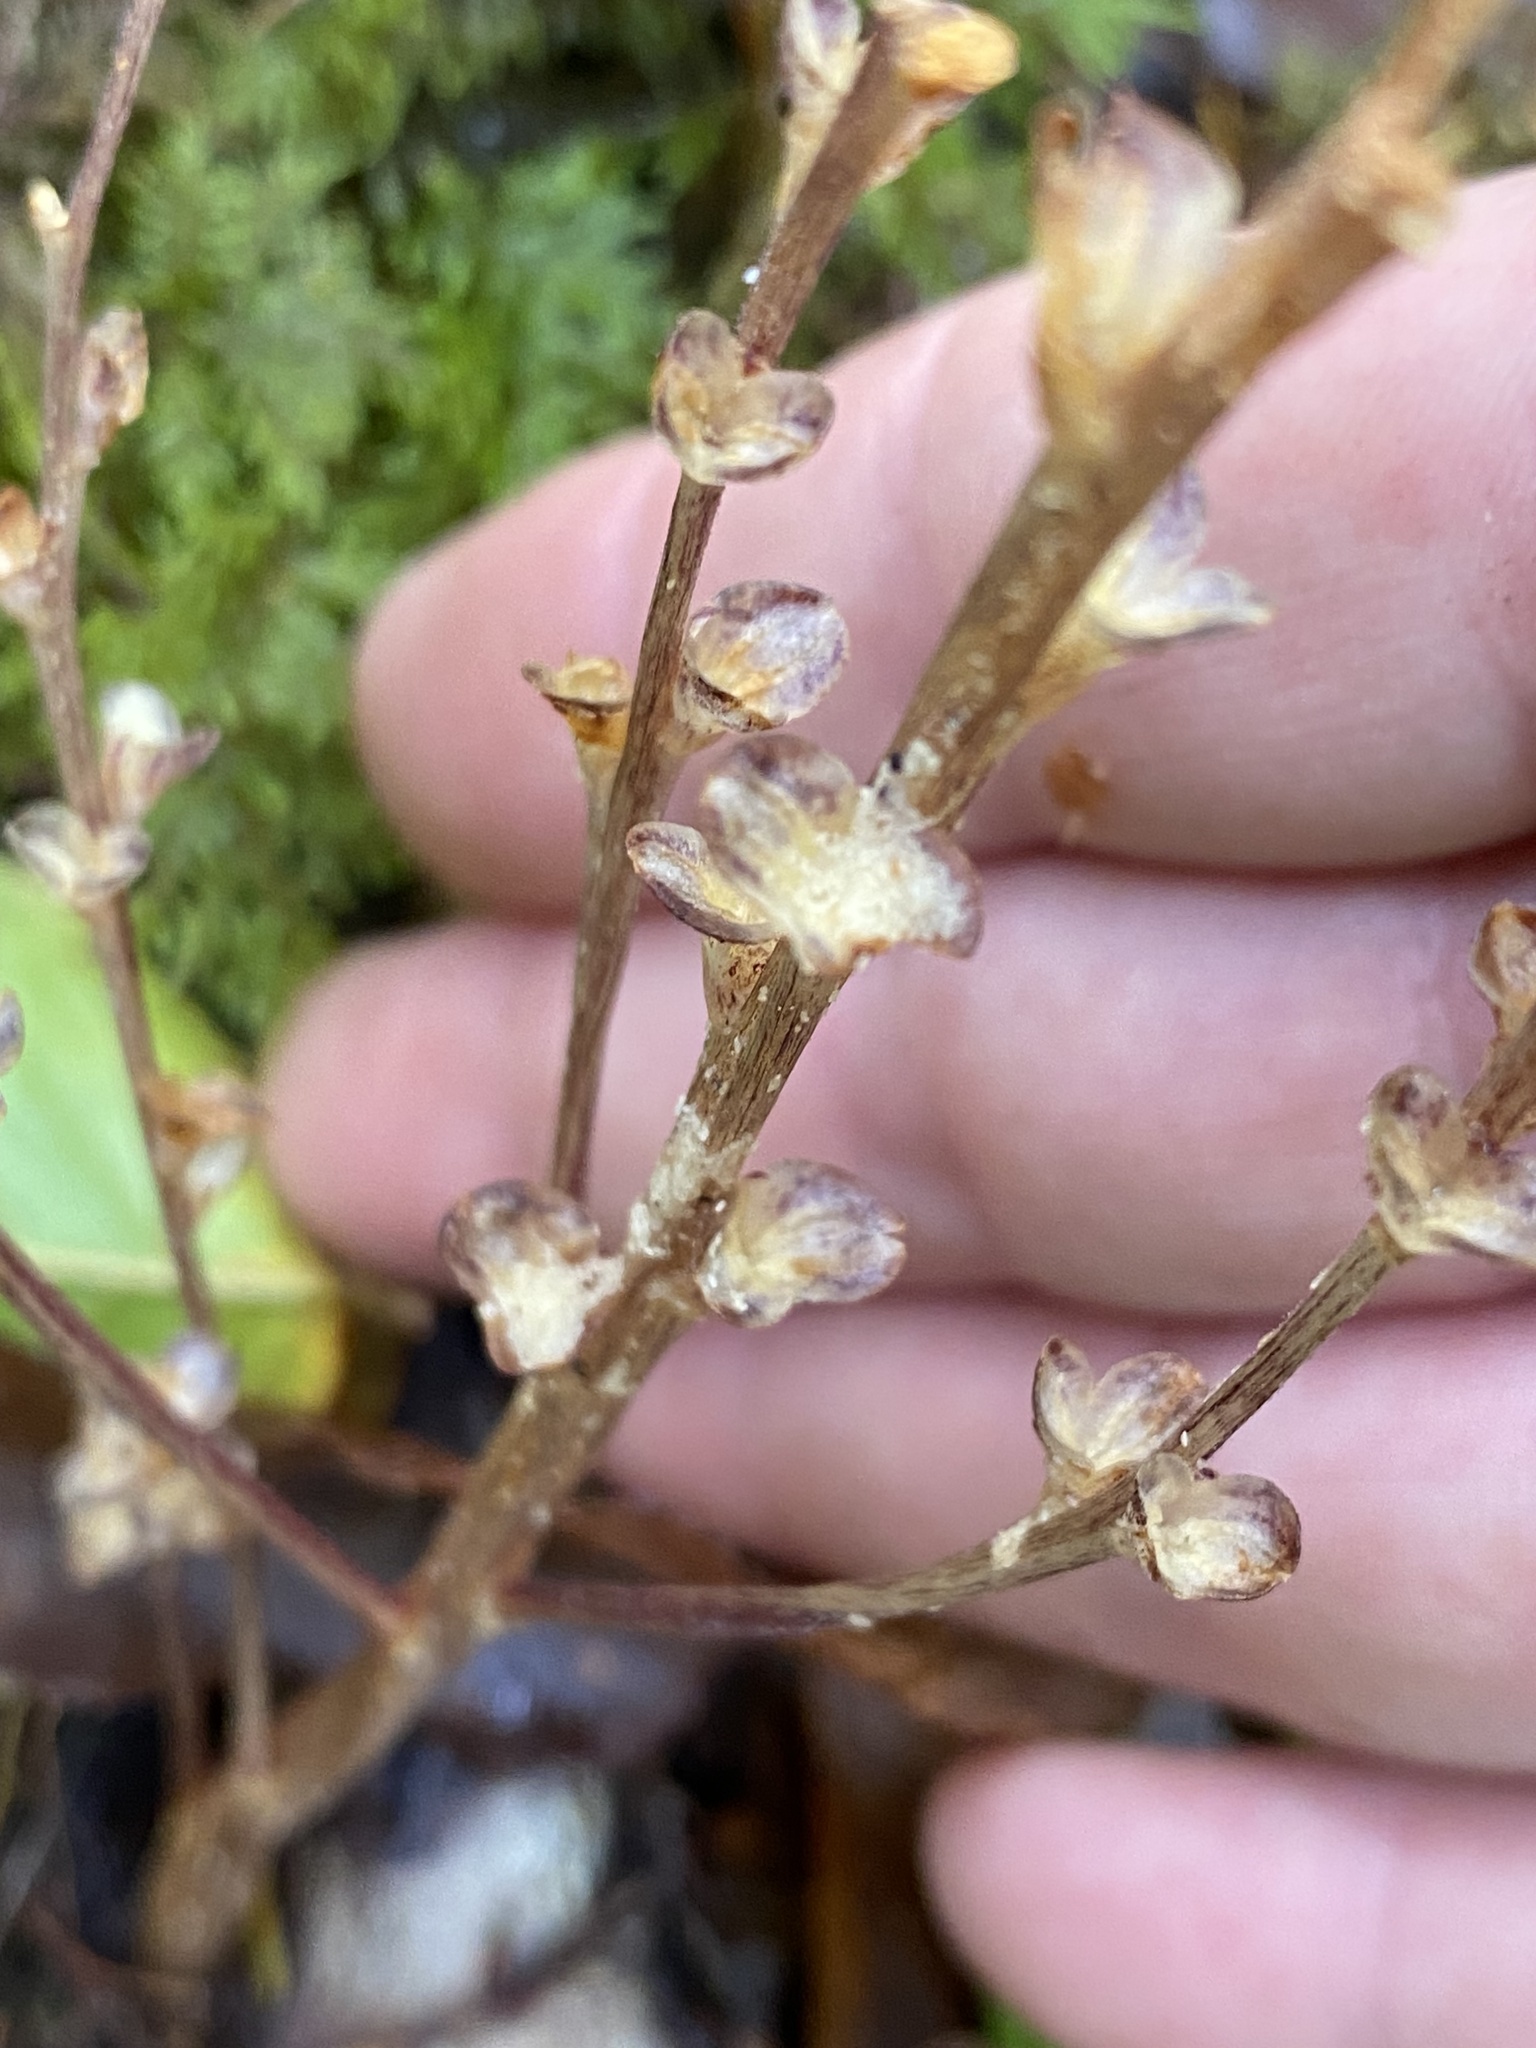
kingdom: Plantae
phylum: Tracheophyta
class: Magnoliopsida
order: Lamiales
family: Orobanchaceae
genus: Epifagus
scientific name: Epifagus virginiana
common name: Beechdrops
